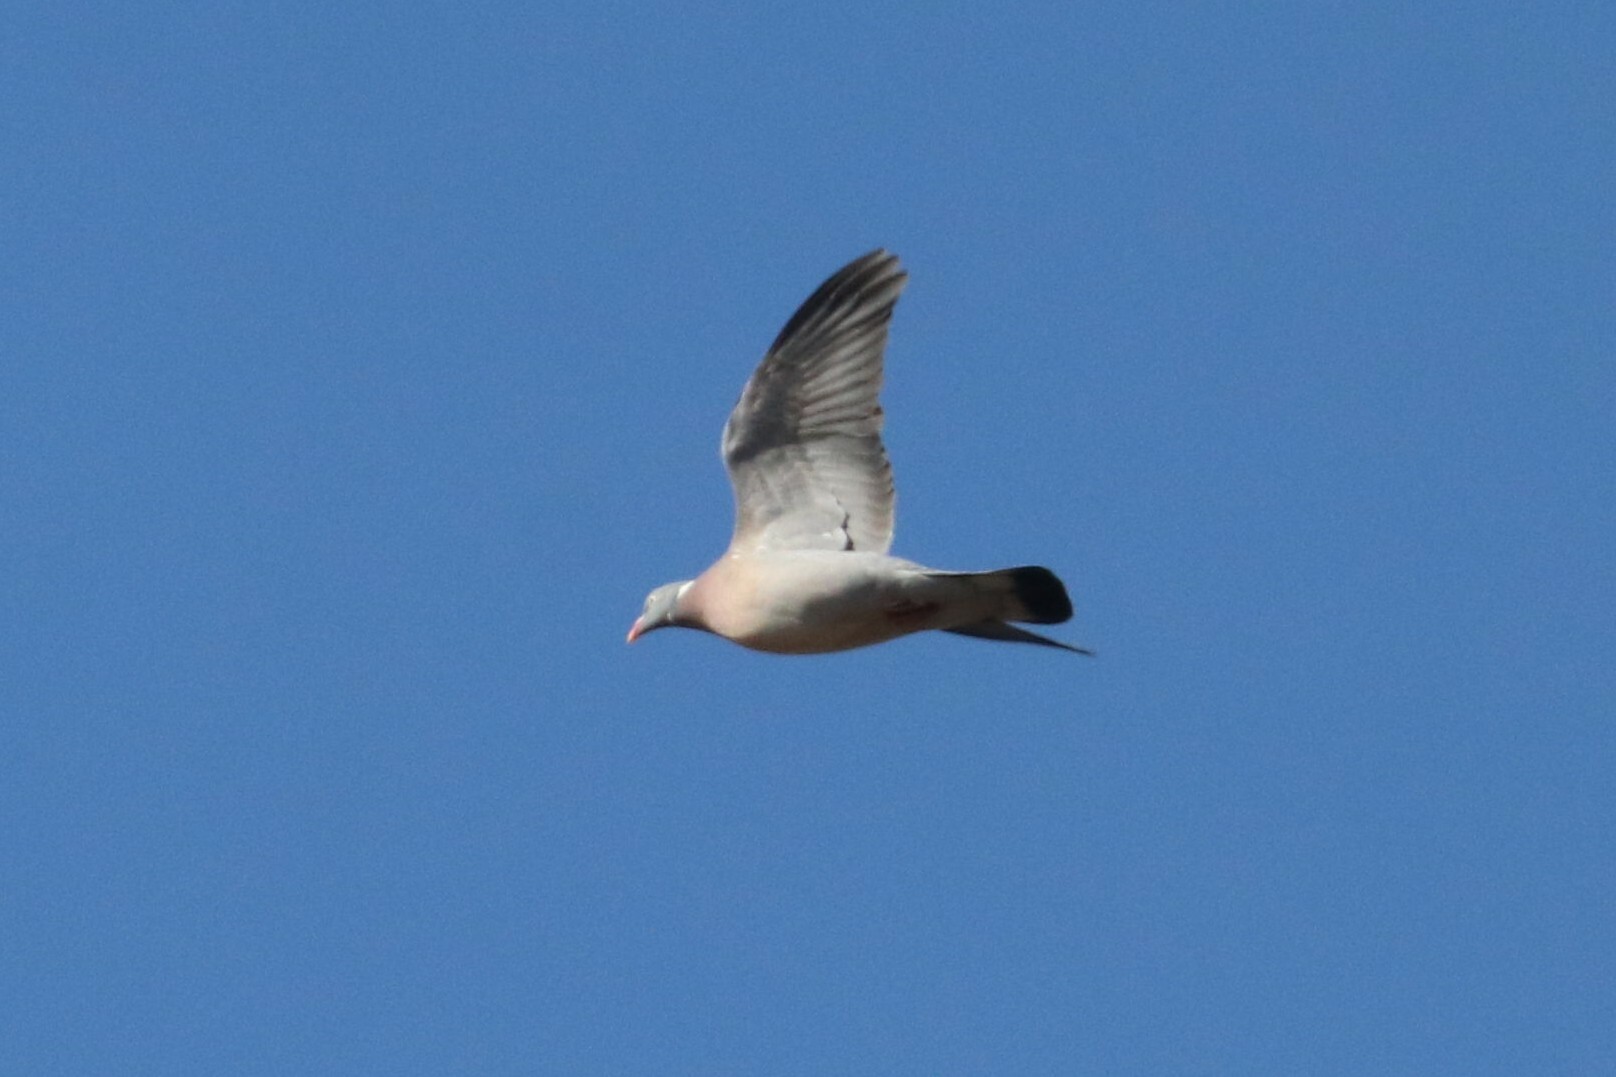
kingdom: Animalia
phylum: Chordata
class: Aves
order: Columbiformes
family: Columbidae
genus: Columba
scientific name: Columba palumbus
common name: Common wood pigeon
